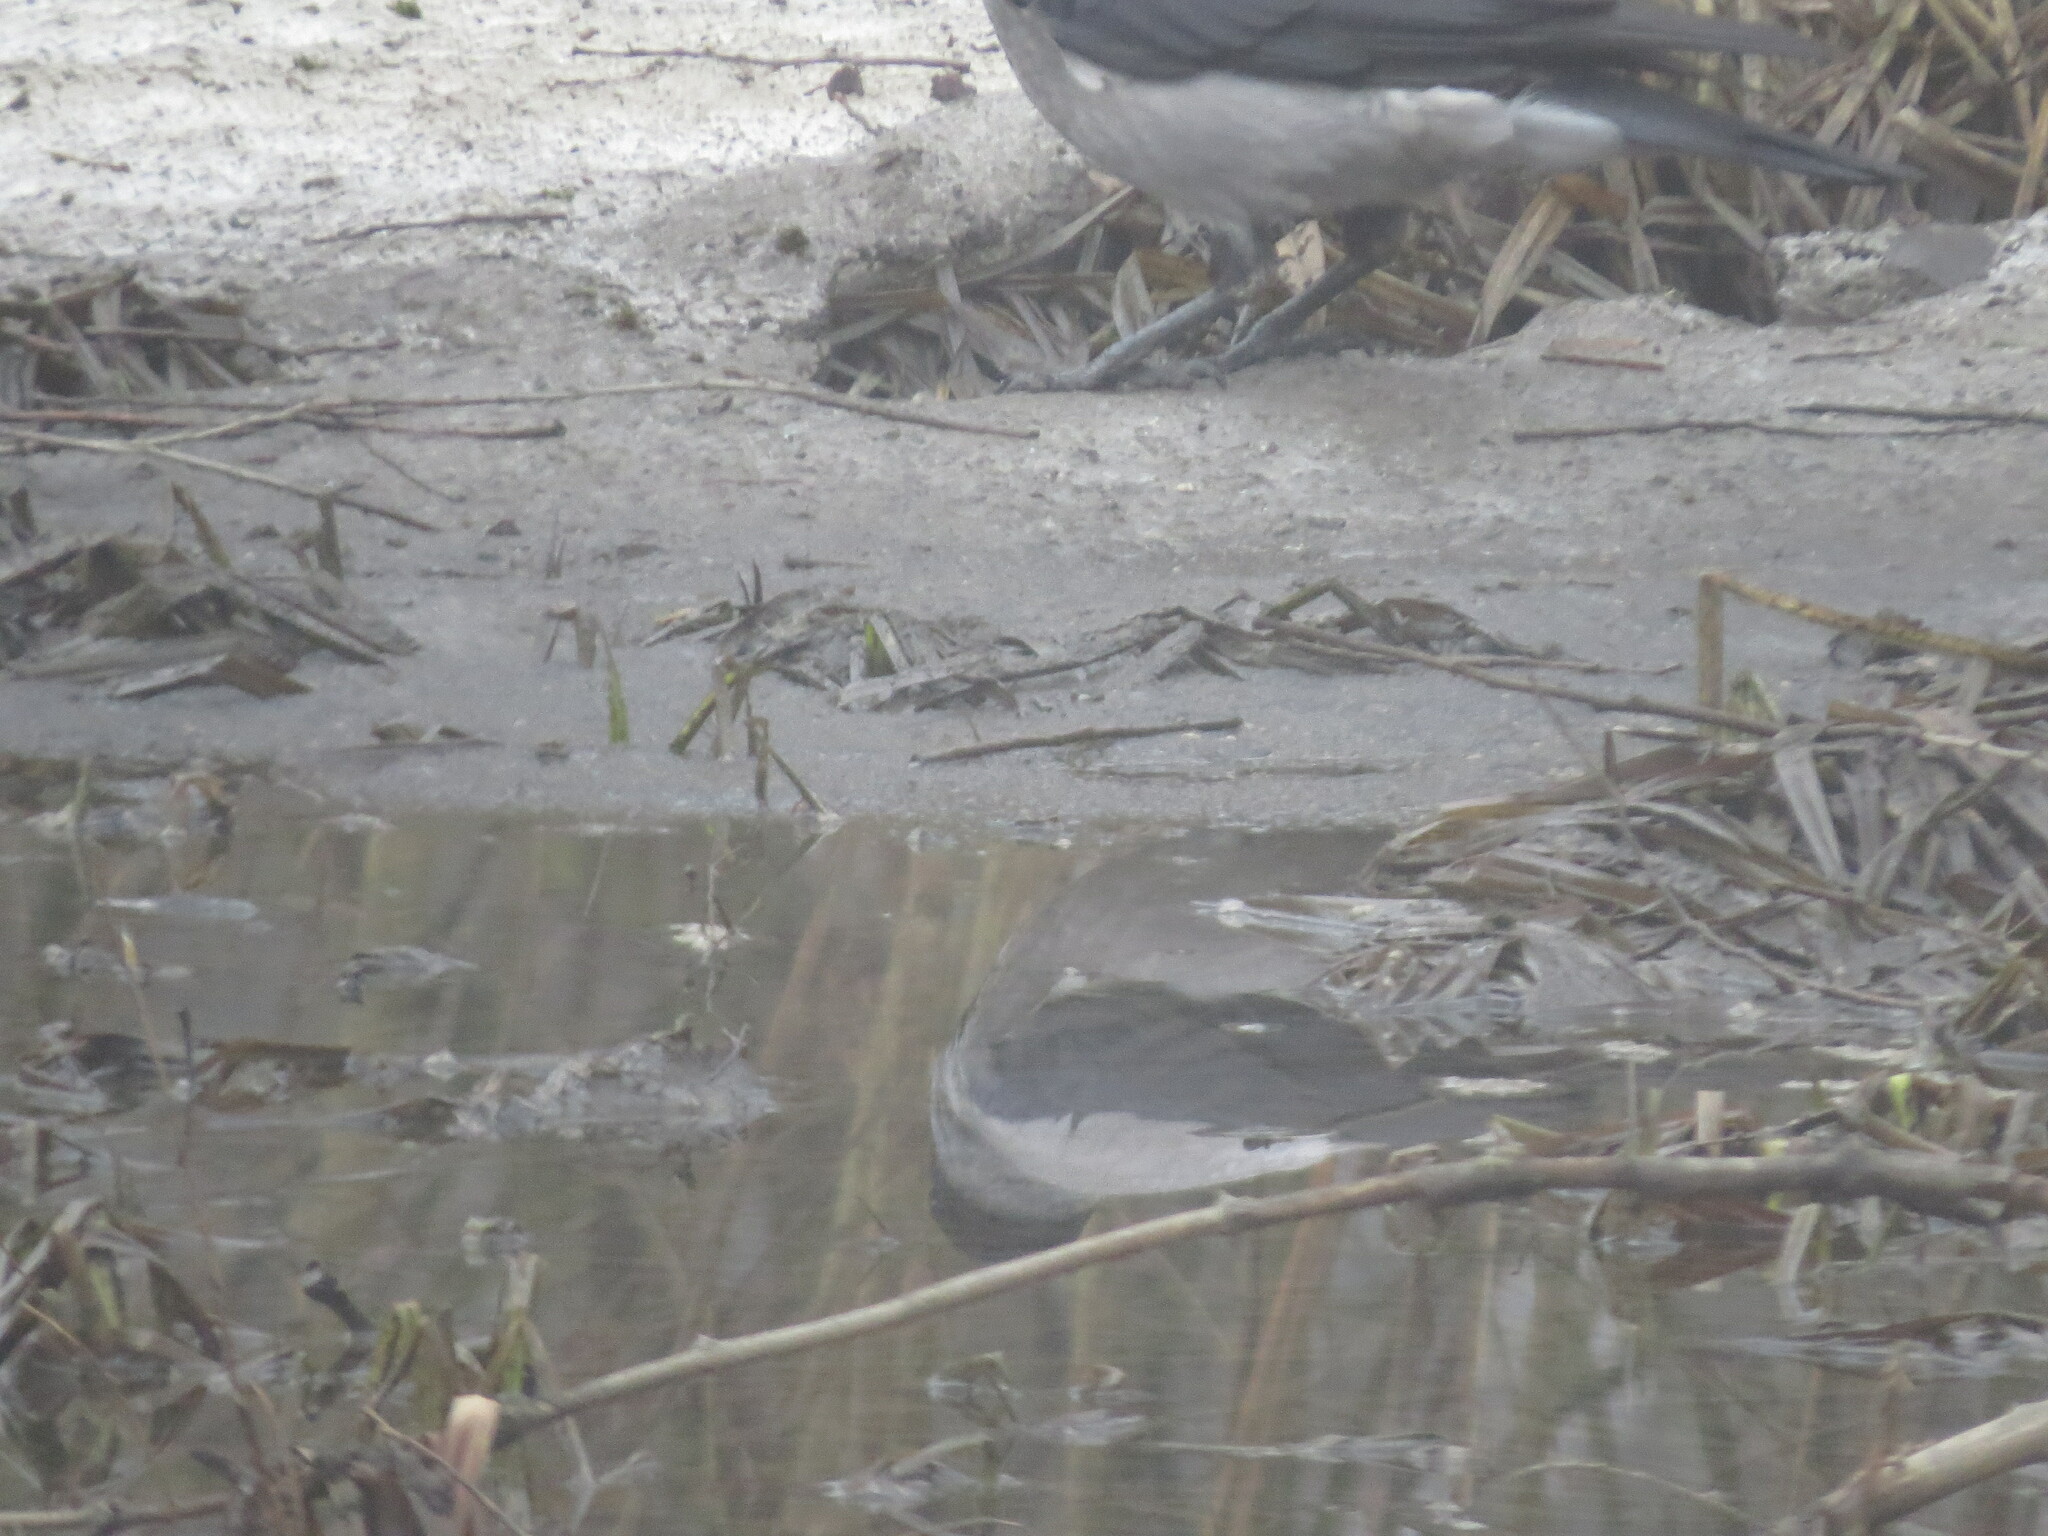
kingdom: Animalia
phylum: Chordata
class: Aves
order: Passeriformes
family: Corvidae
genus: Corvus
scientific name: Corvus cornix
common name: Hooded crow
